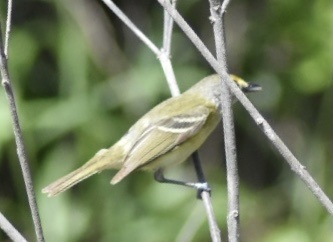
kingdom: Animalia
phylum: Chordata
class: Aves
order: Passeriformes
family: Vireonidae
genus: Vireo
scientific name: Vireo griseus
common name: White-eyed vireo
